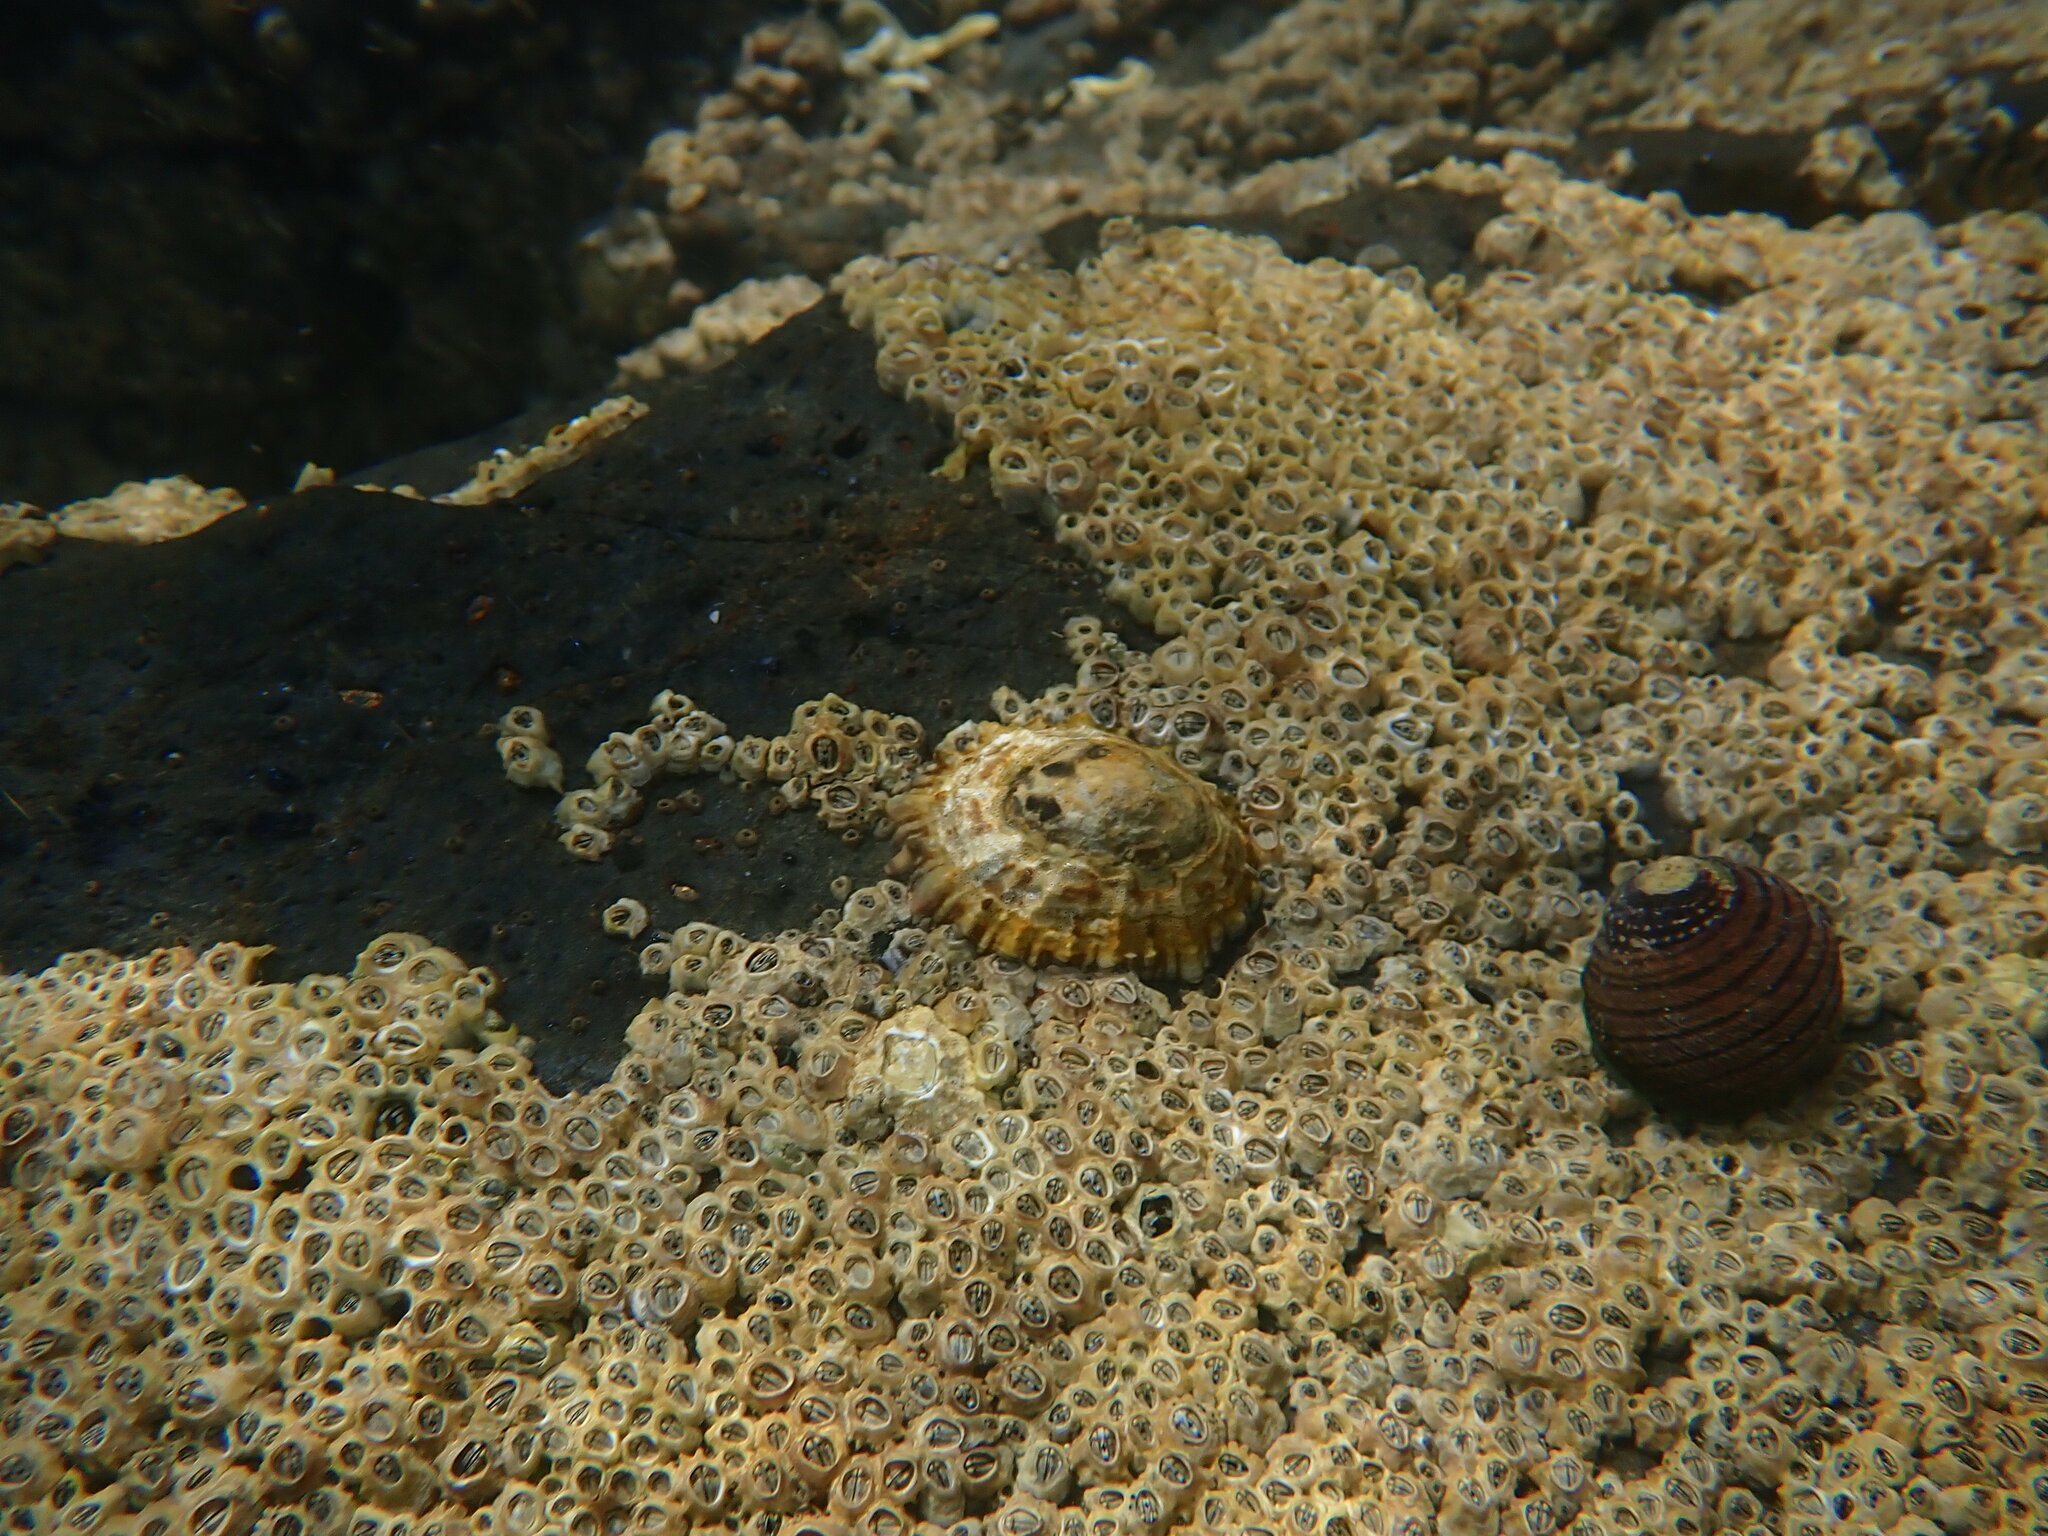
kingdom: Animalia
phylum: Mollusca
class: Gastropoda
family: Nacellidae
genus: Cellana
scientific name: Cellana ornata
